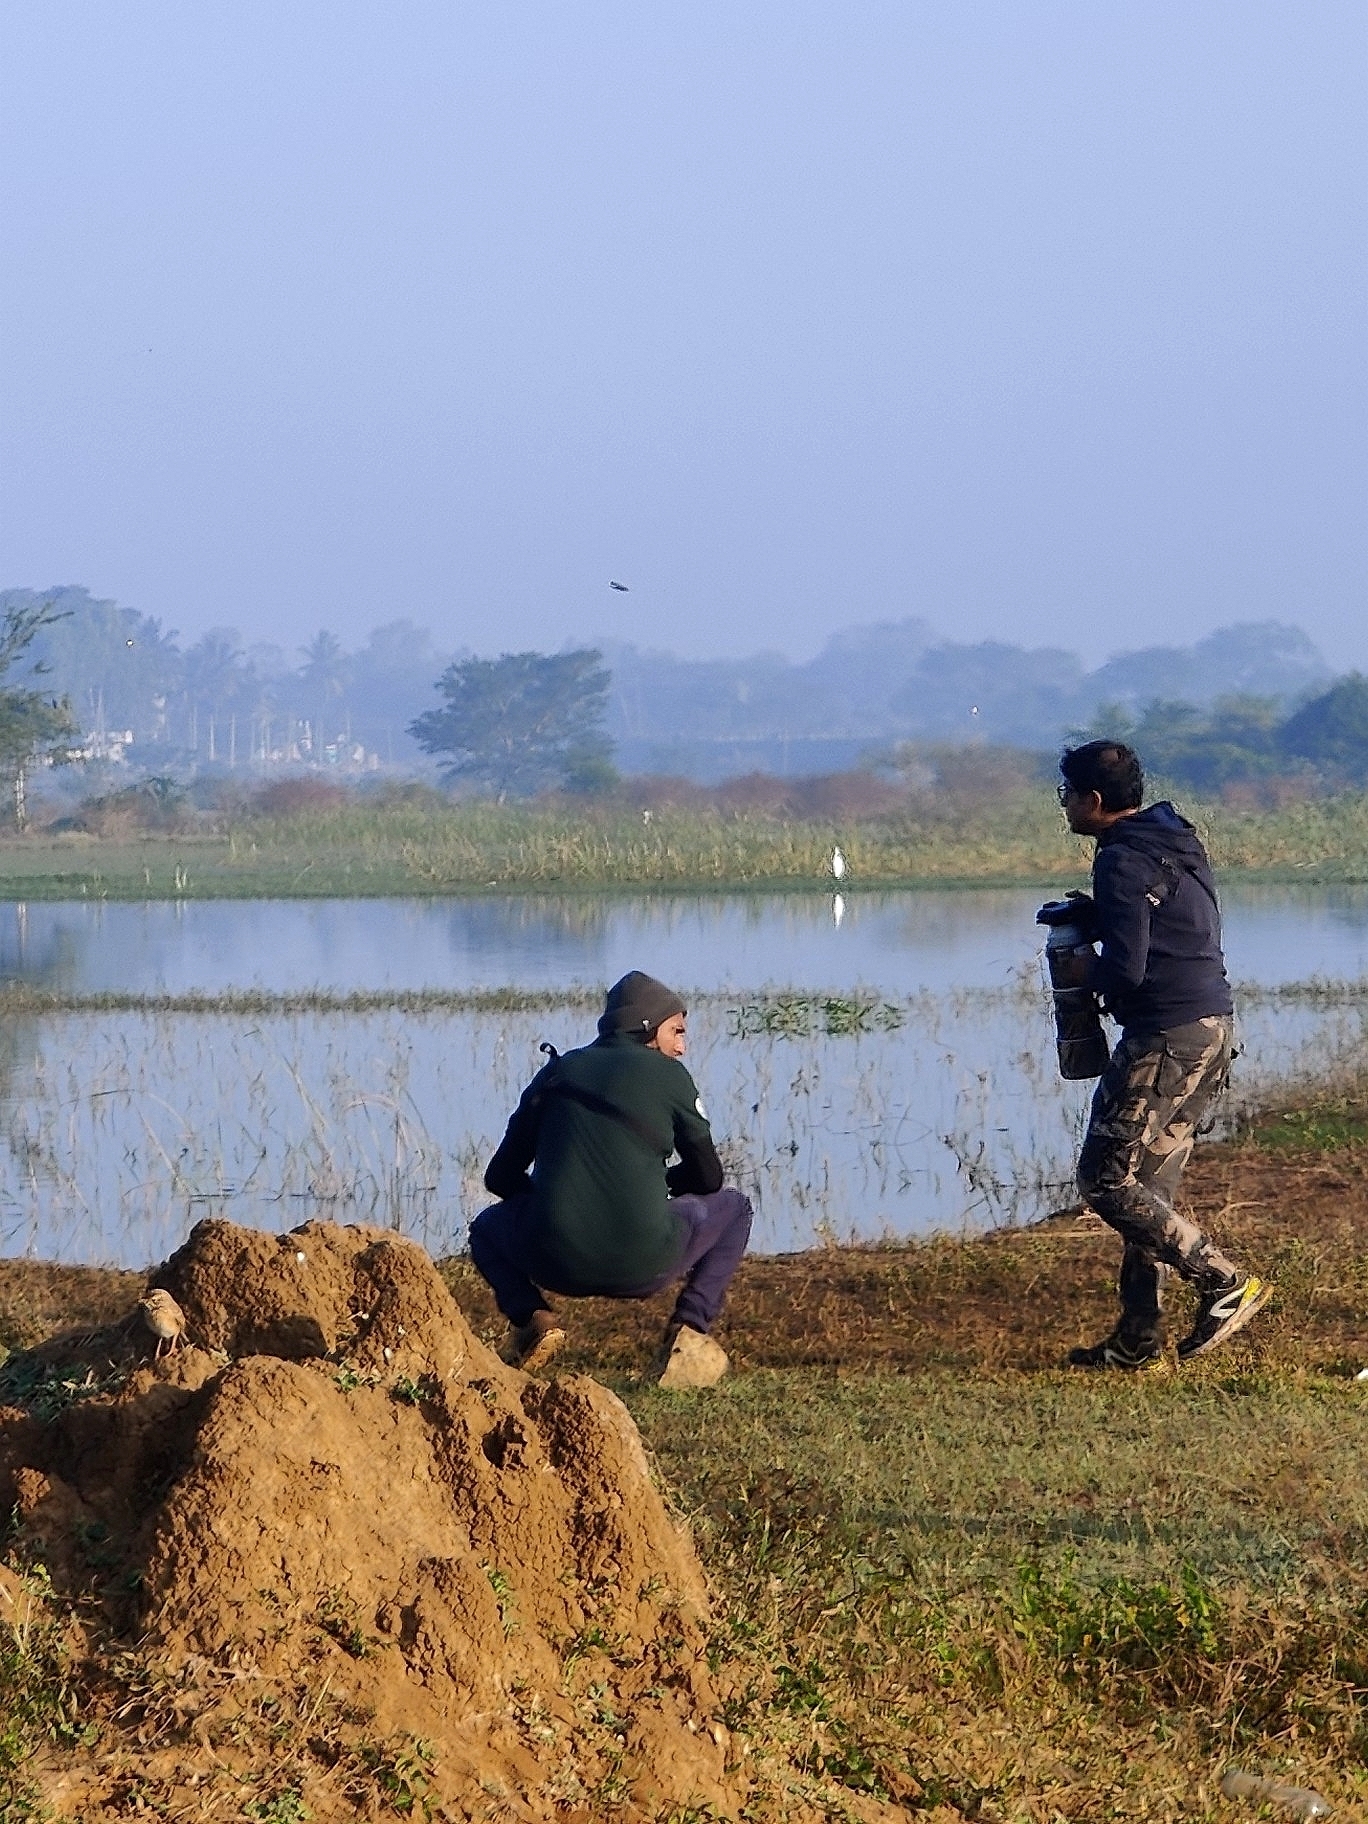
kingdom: Animalia
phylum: Chordata
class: Aves
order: Passeriformes
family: Motacillidae
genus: Anthus
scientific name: Anthus rufulus
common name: Paddyfield pipit
